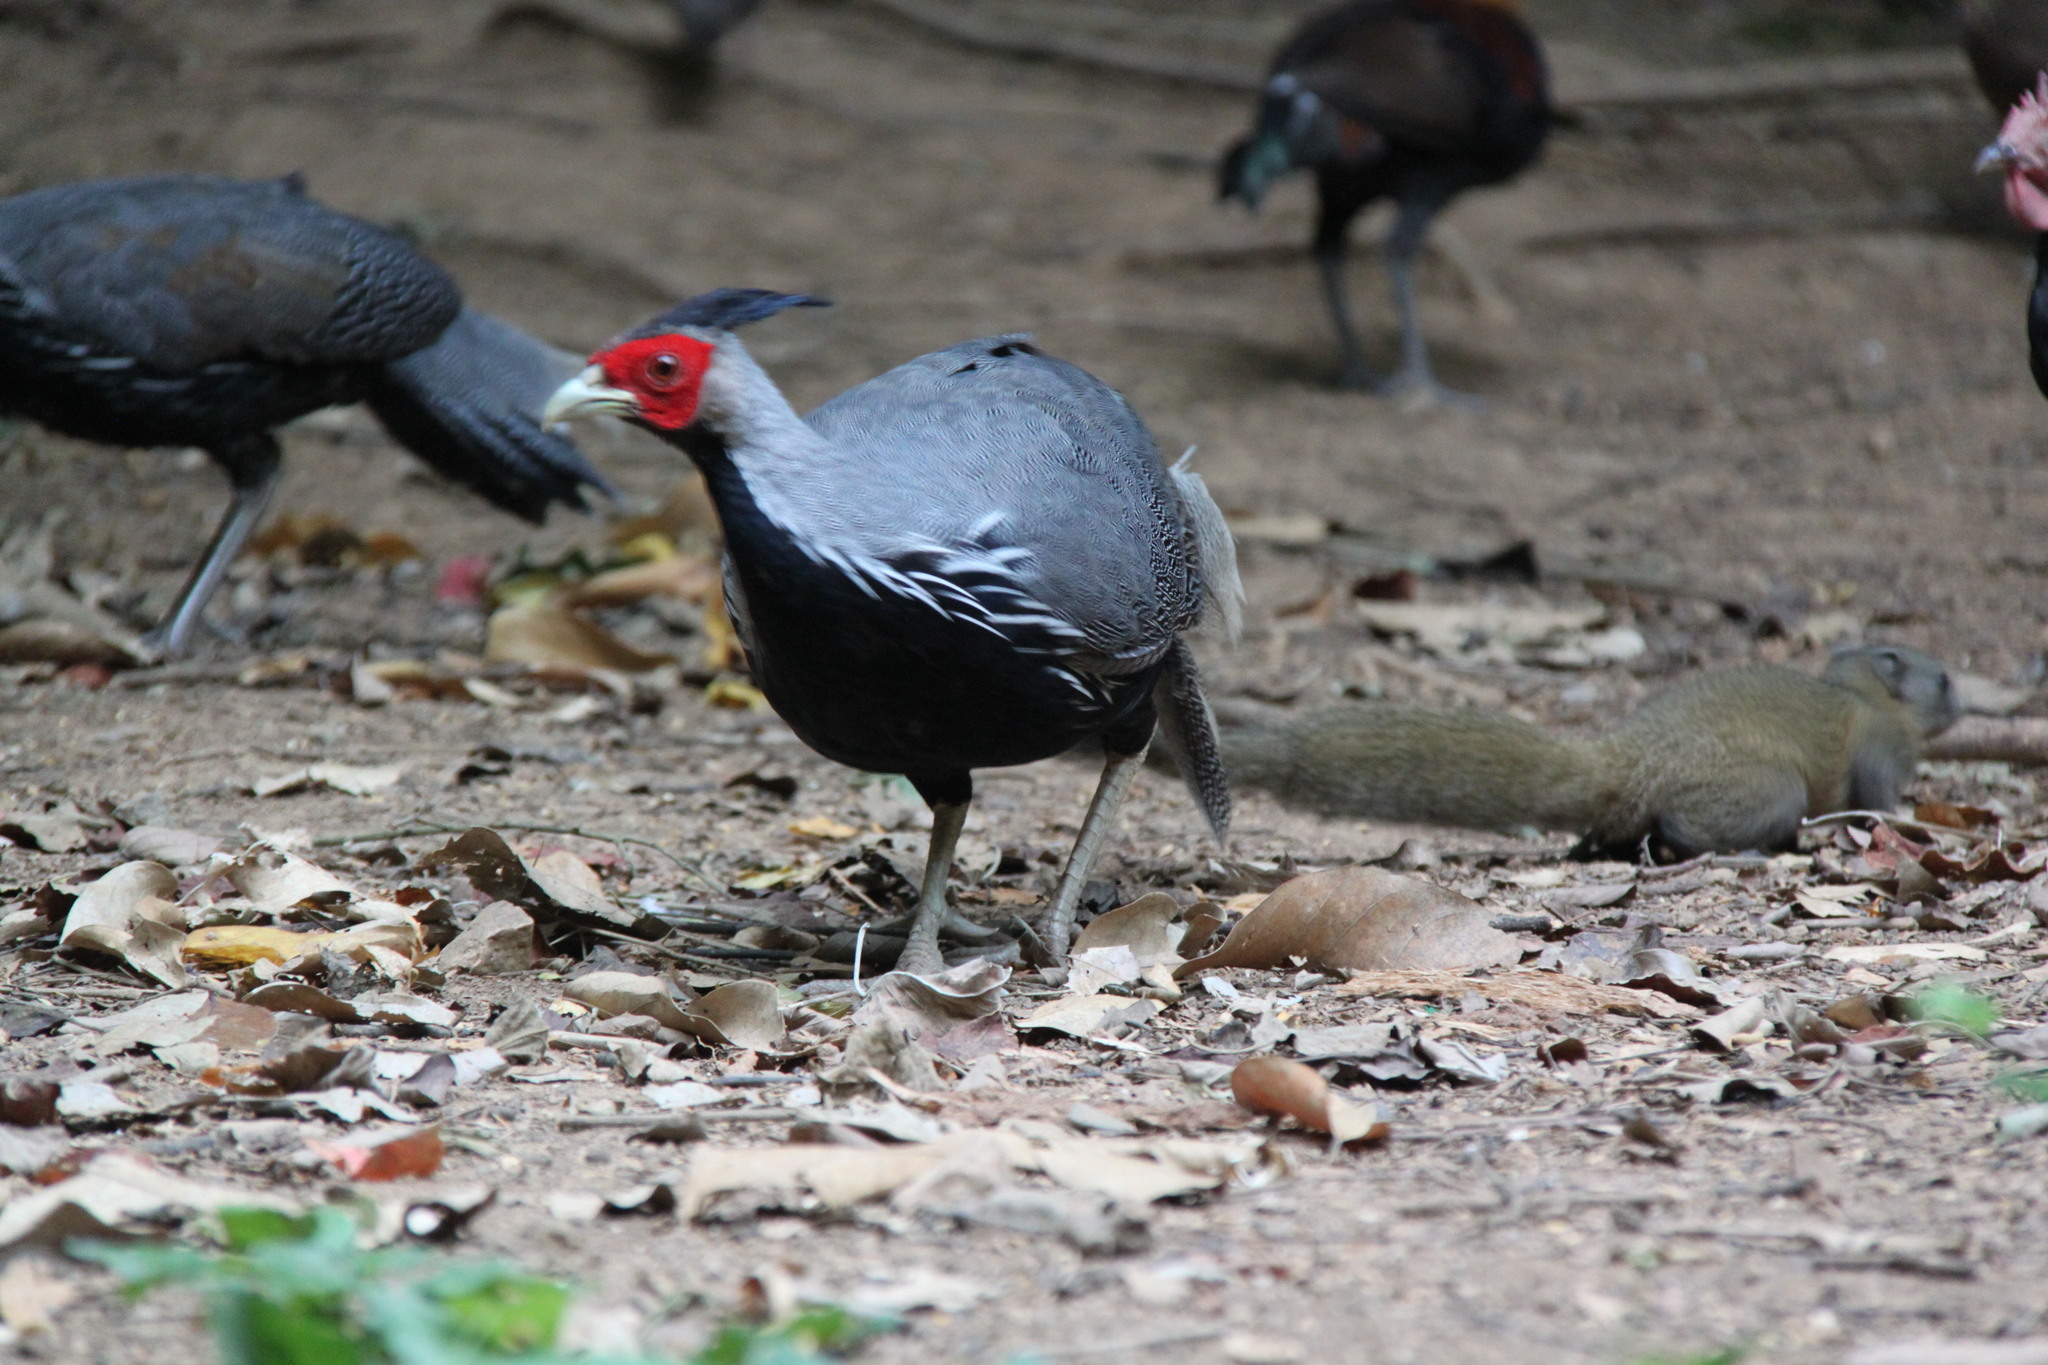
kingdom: Animalia
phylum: Chordata
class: Aves
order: Galliformes
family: Phasianidae
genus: Lophura
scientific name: Lophura leucomelanos
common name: Kalij pheasant
